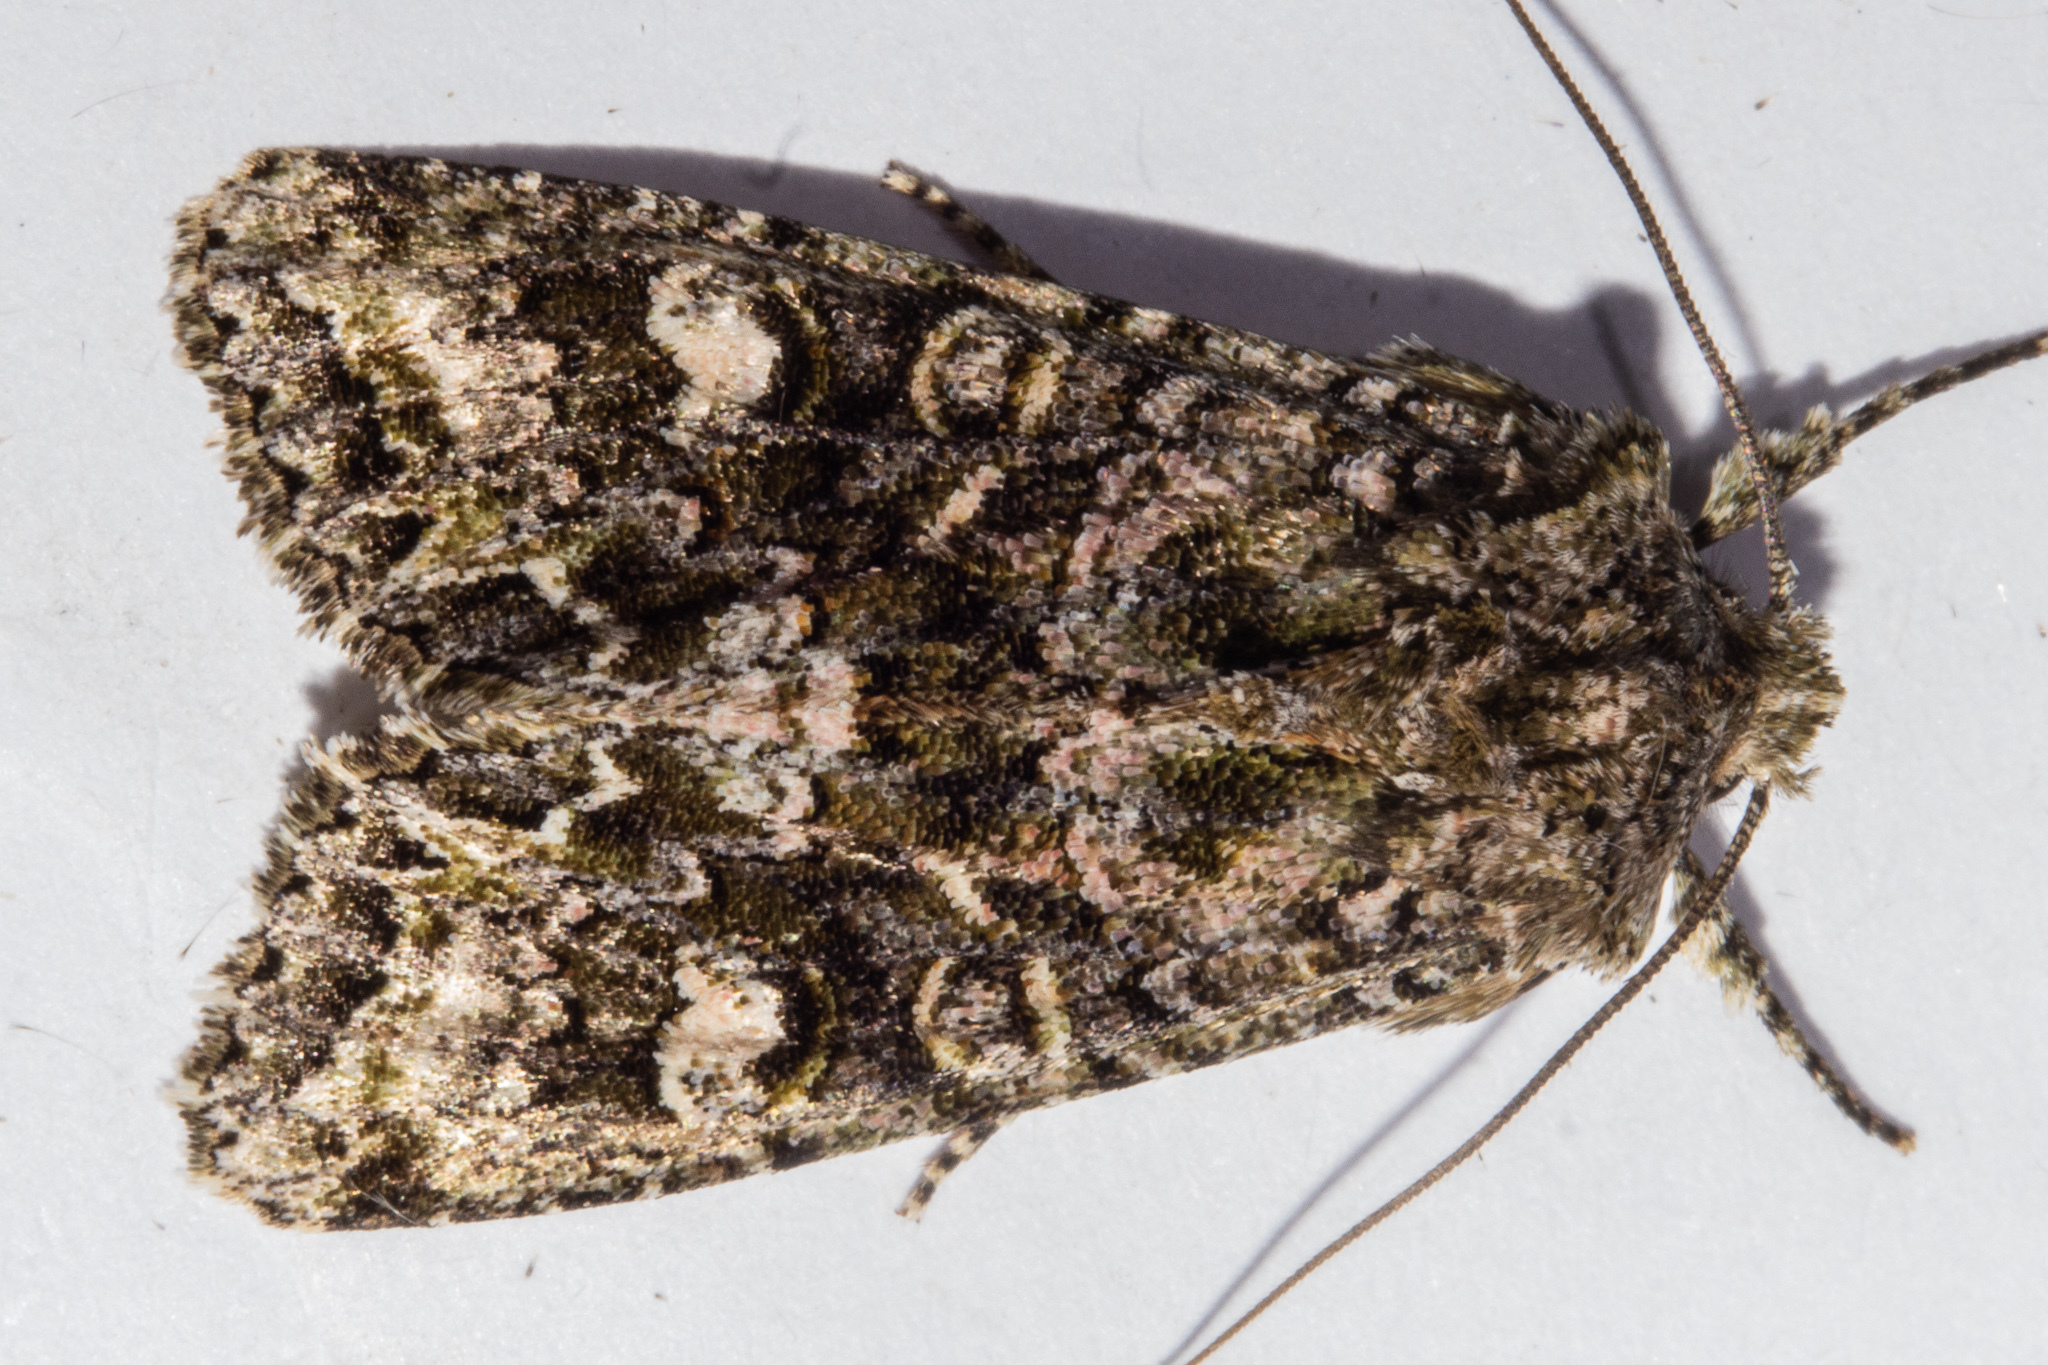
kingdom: Animalia
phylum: Arthropoda
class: Insecta
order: Lepidoptera
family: Noctuidae
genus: Ichneutica
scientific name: Ichneutica
